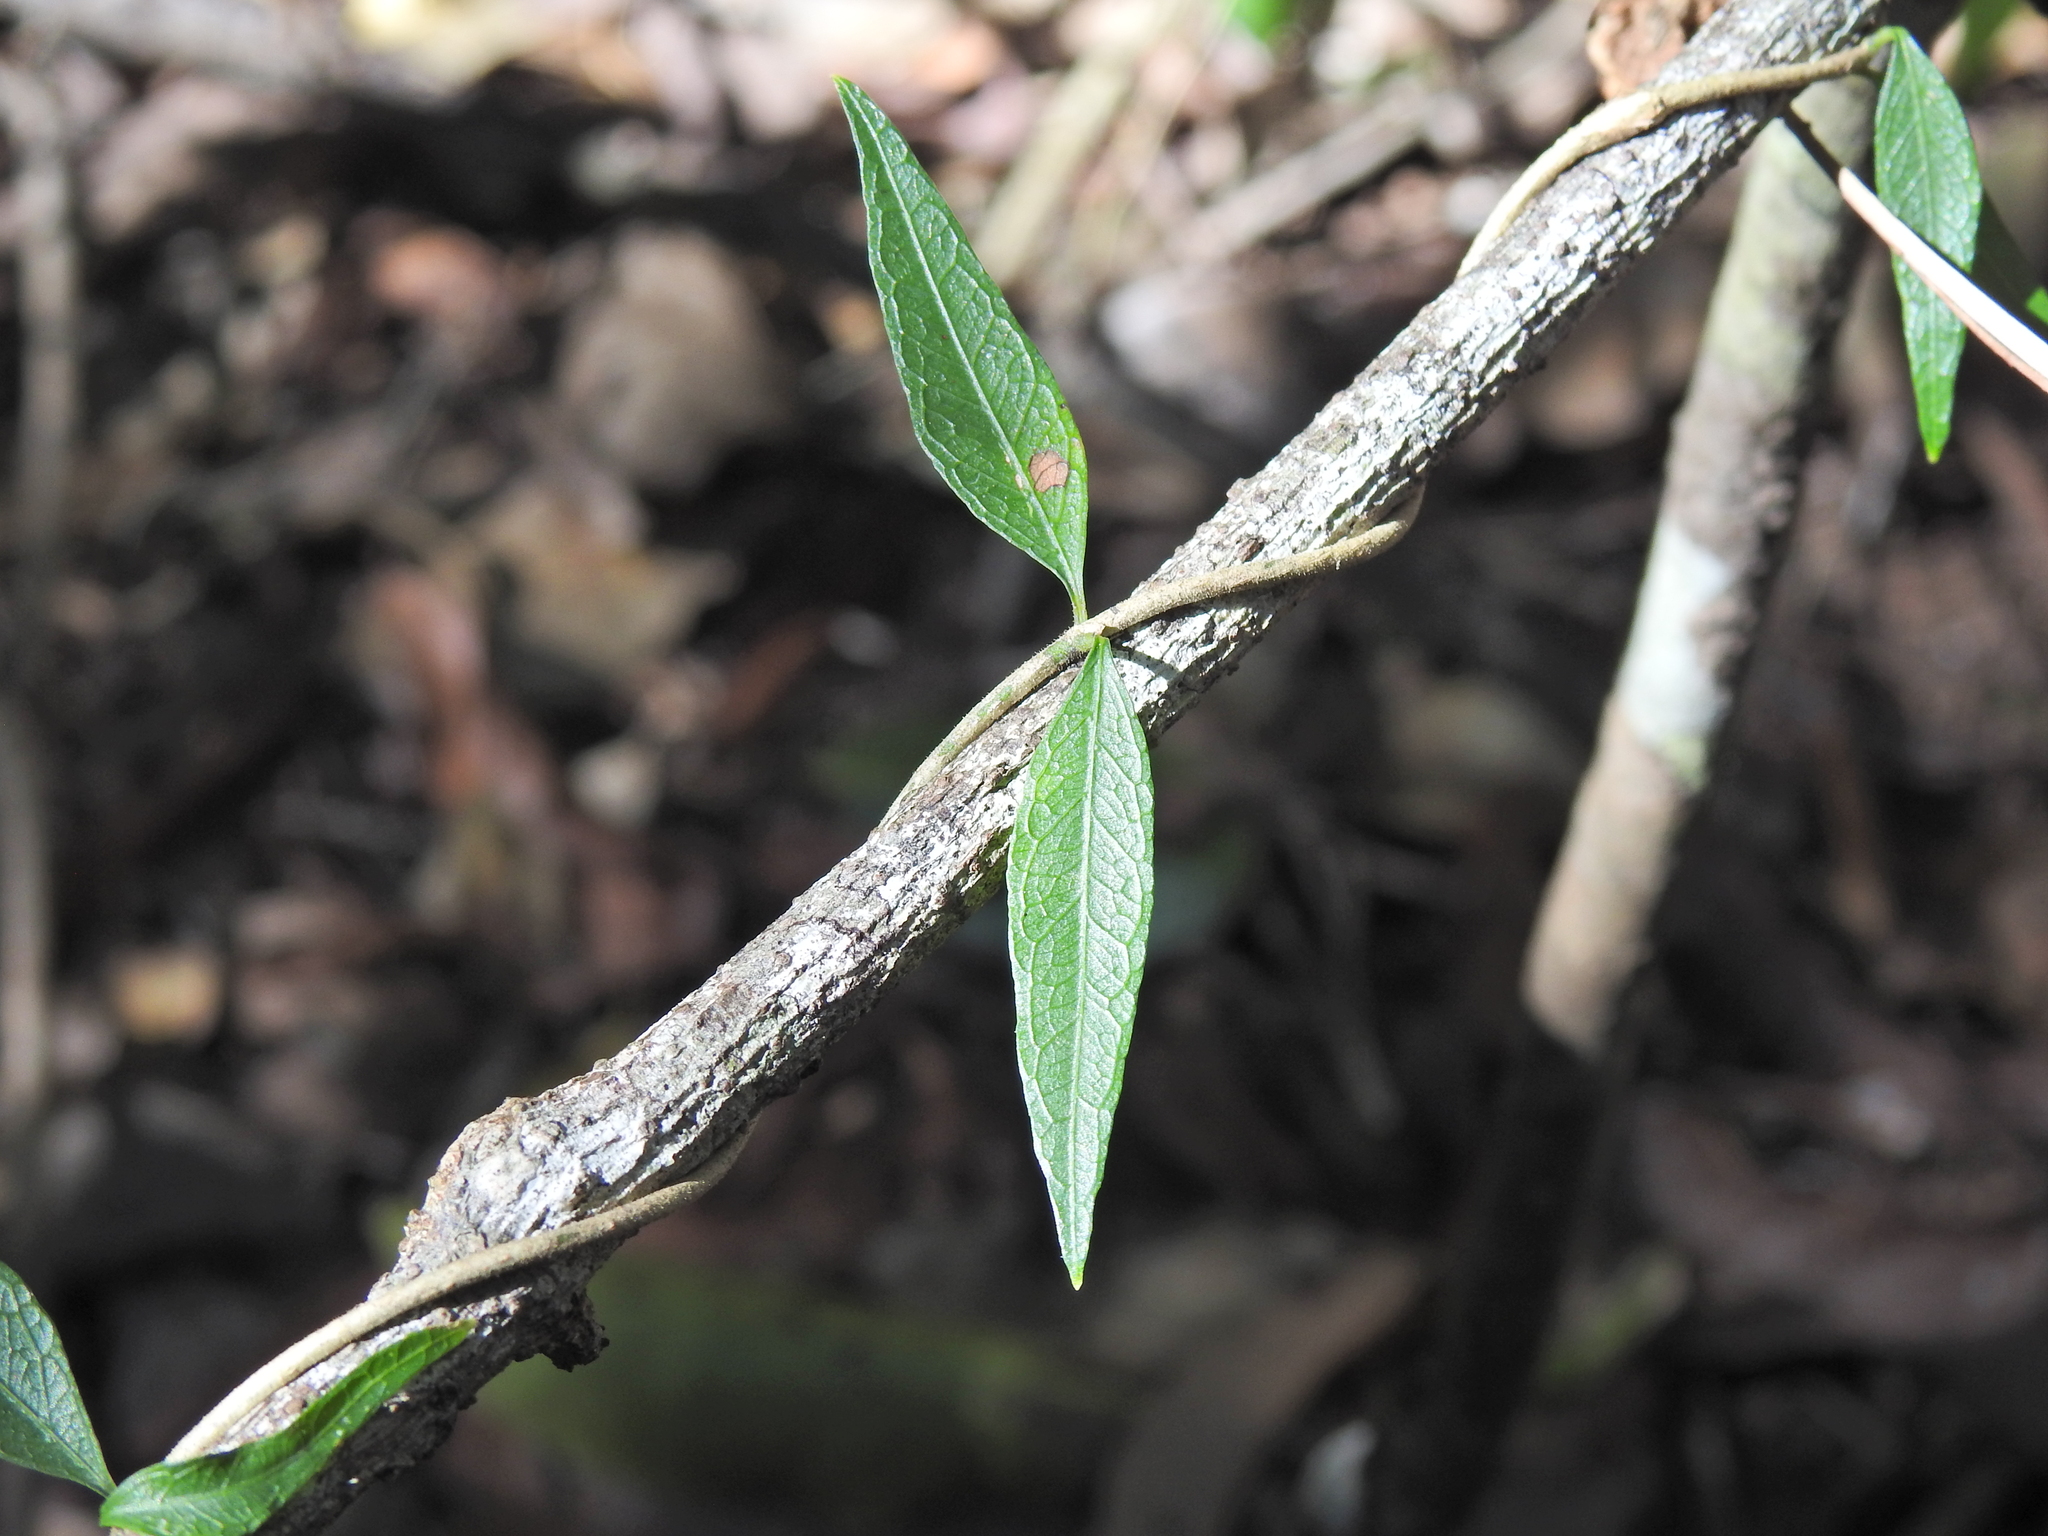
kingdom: Plantae
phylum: Tracheophyta
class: Magnoliopsida
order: Gentianales
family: Rubiaceae
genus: Gynochthodes
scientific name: Gynochthodes canthoides
